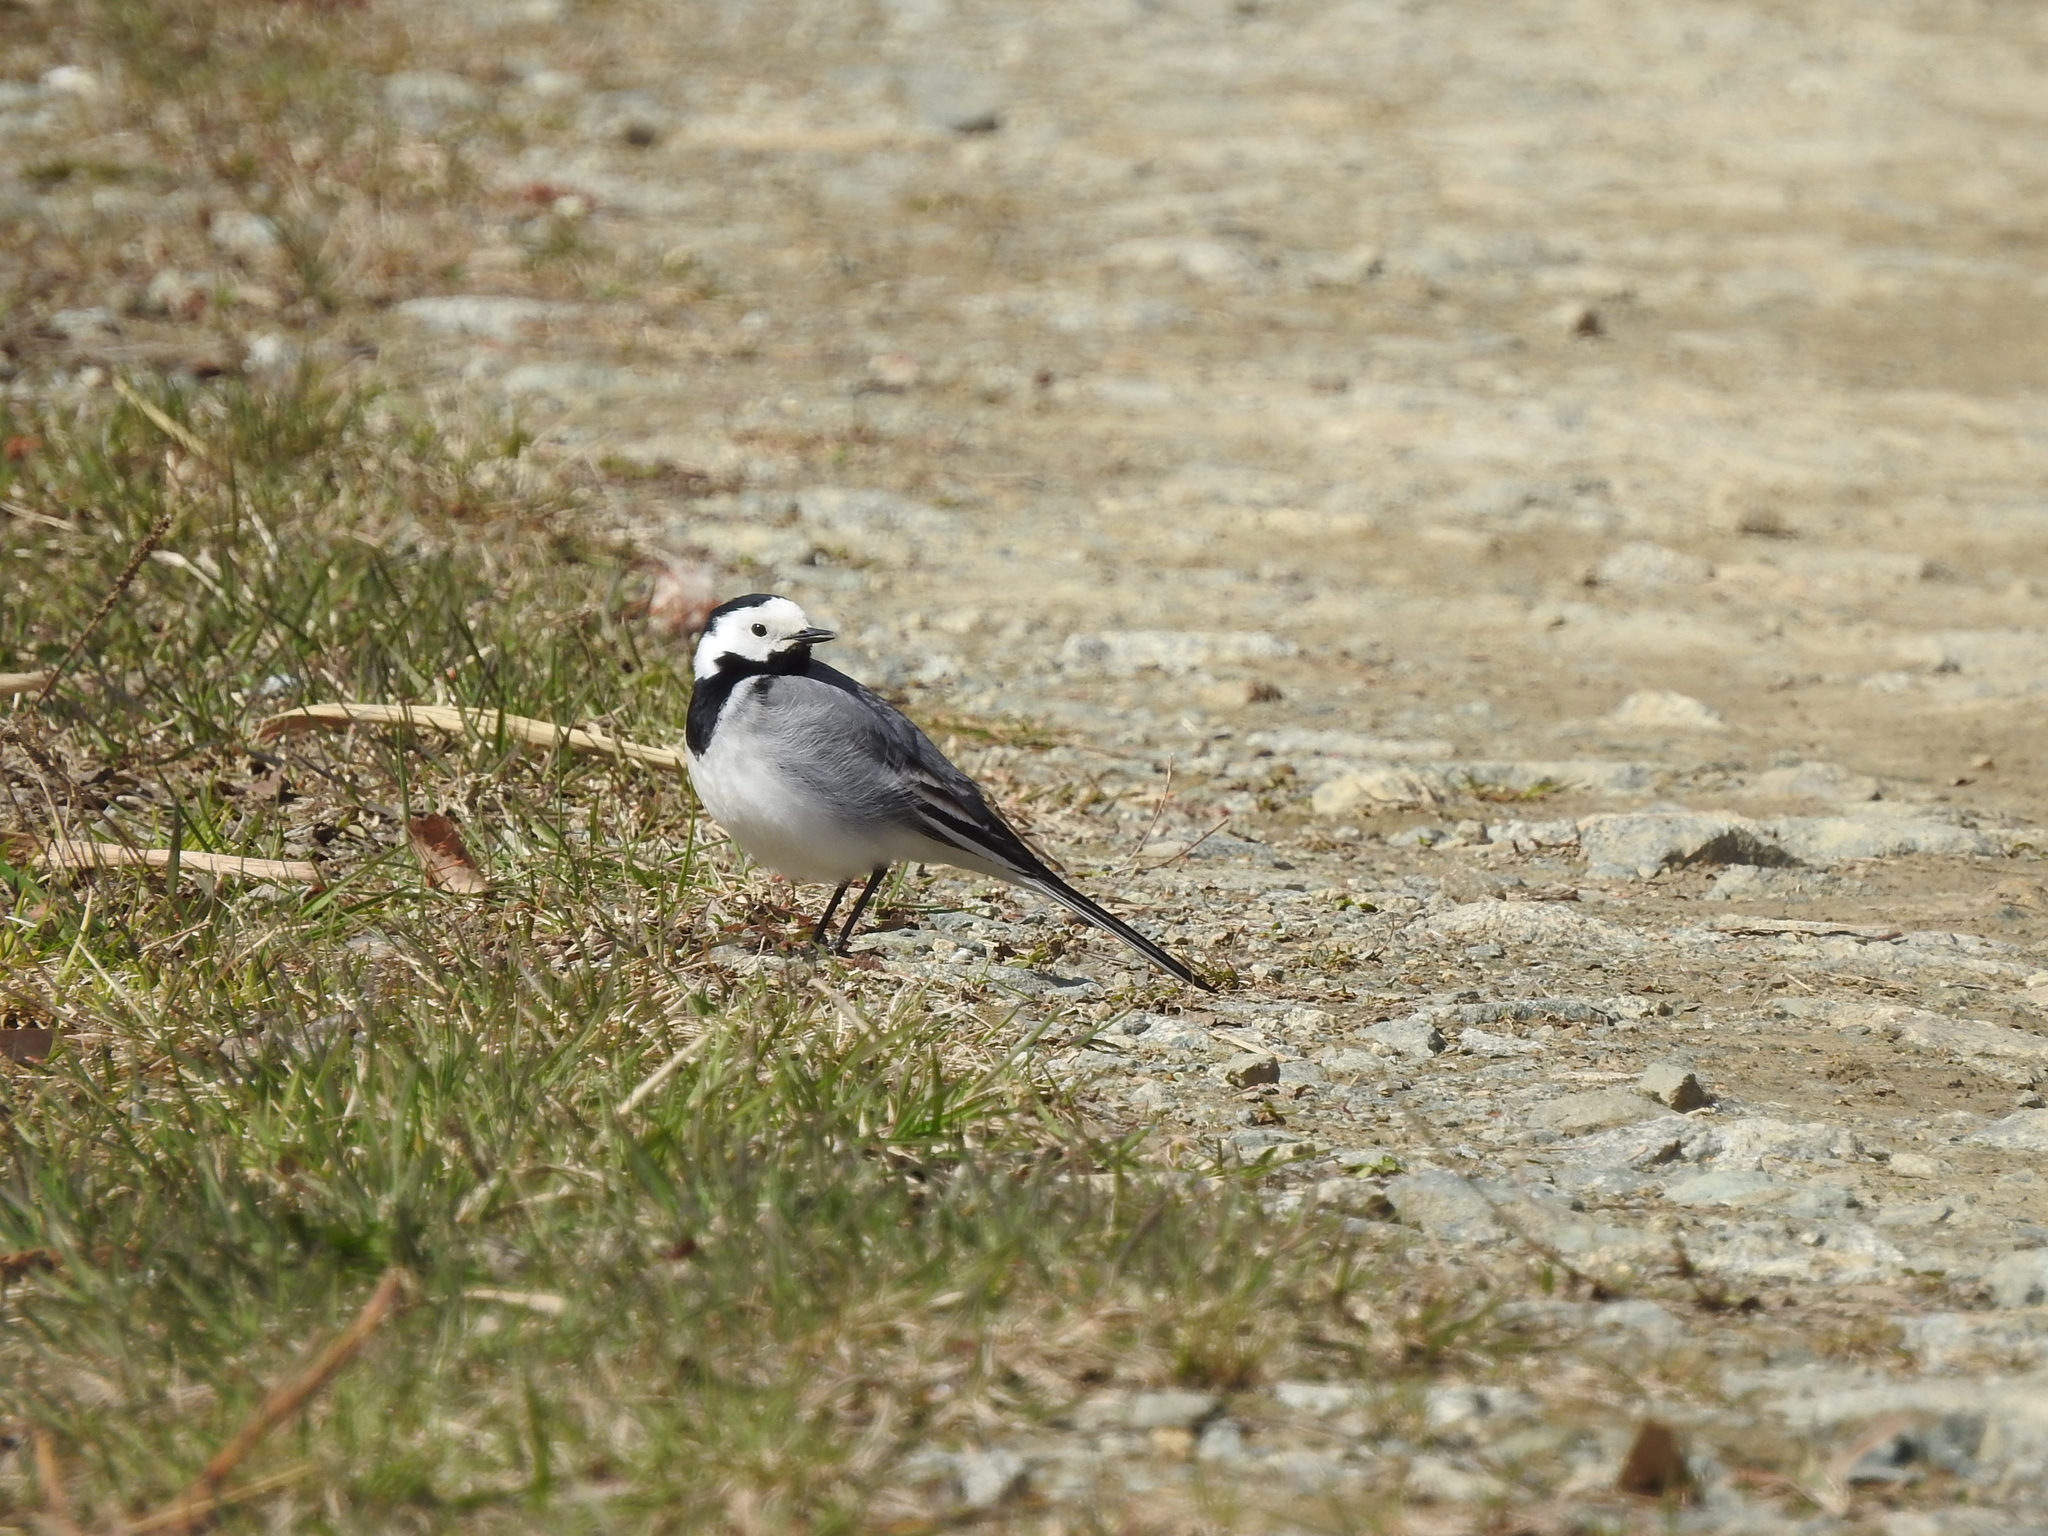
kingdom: Animalia
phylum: Chordata
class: Aves
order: Passeriformes
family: Motacillidae
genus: Motacilla
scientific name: Motacilla alba
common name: White wagtail
